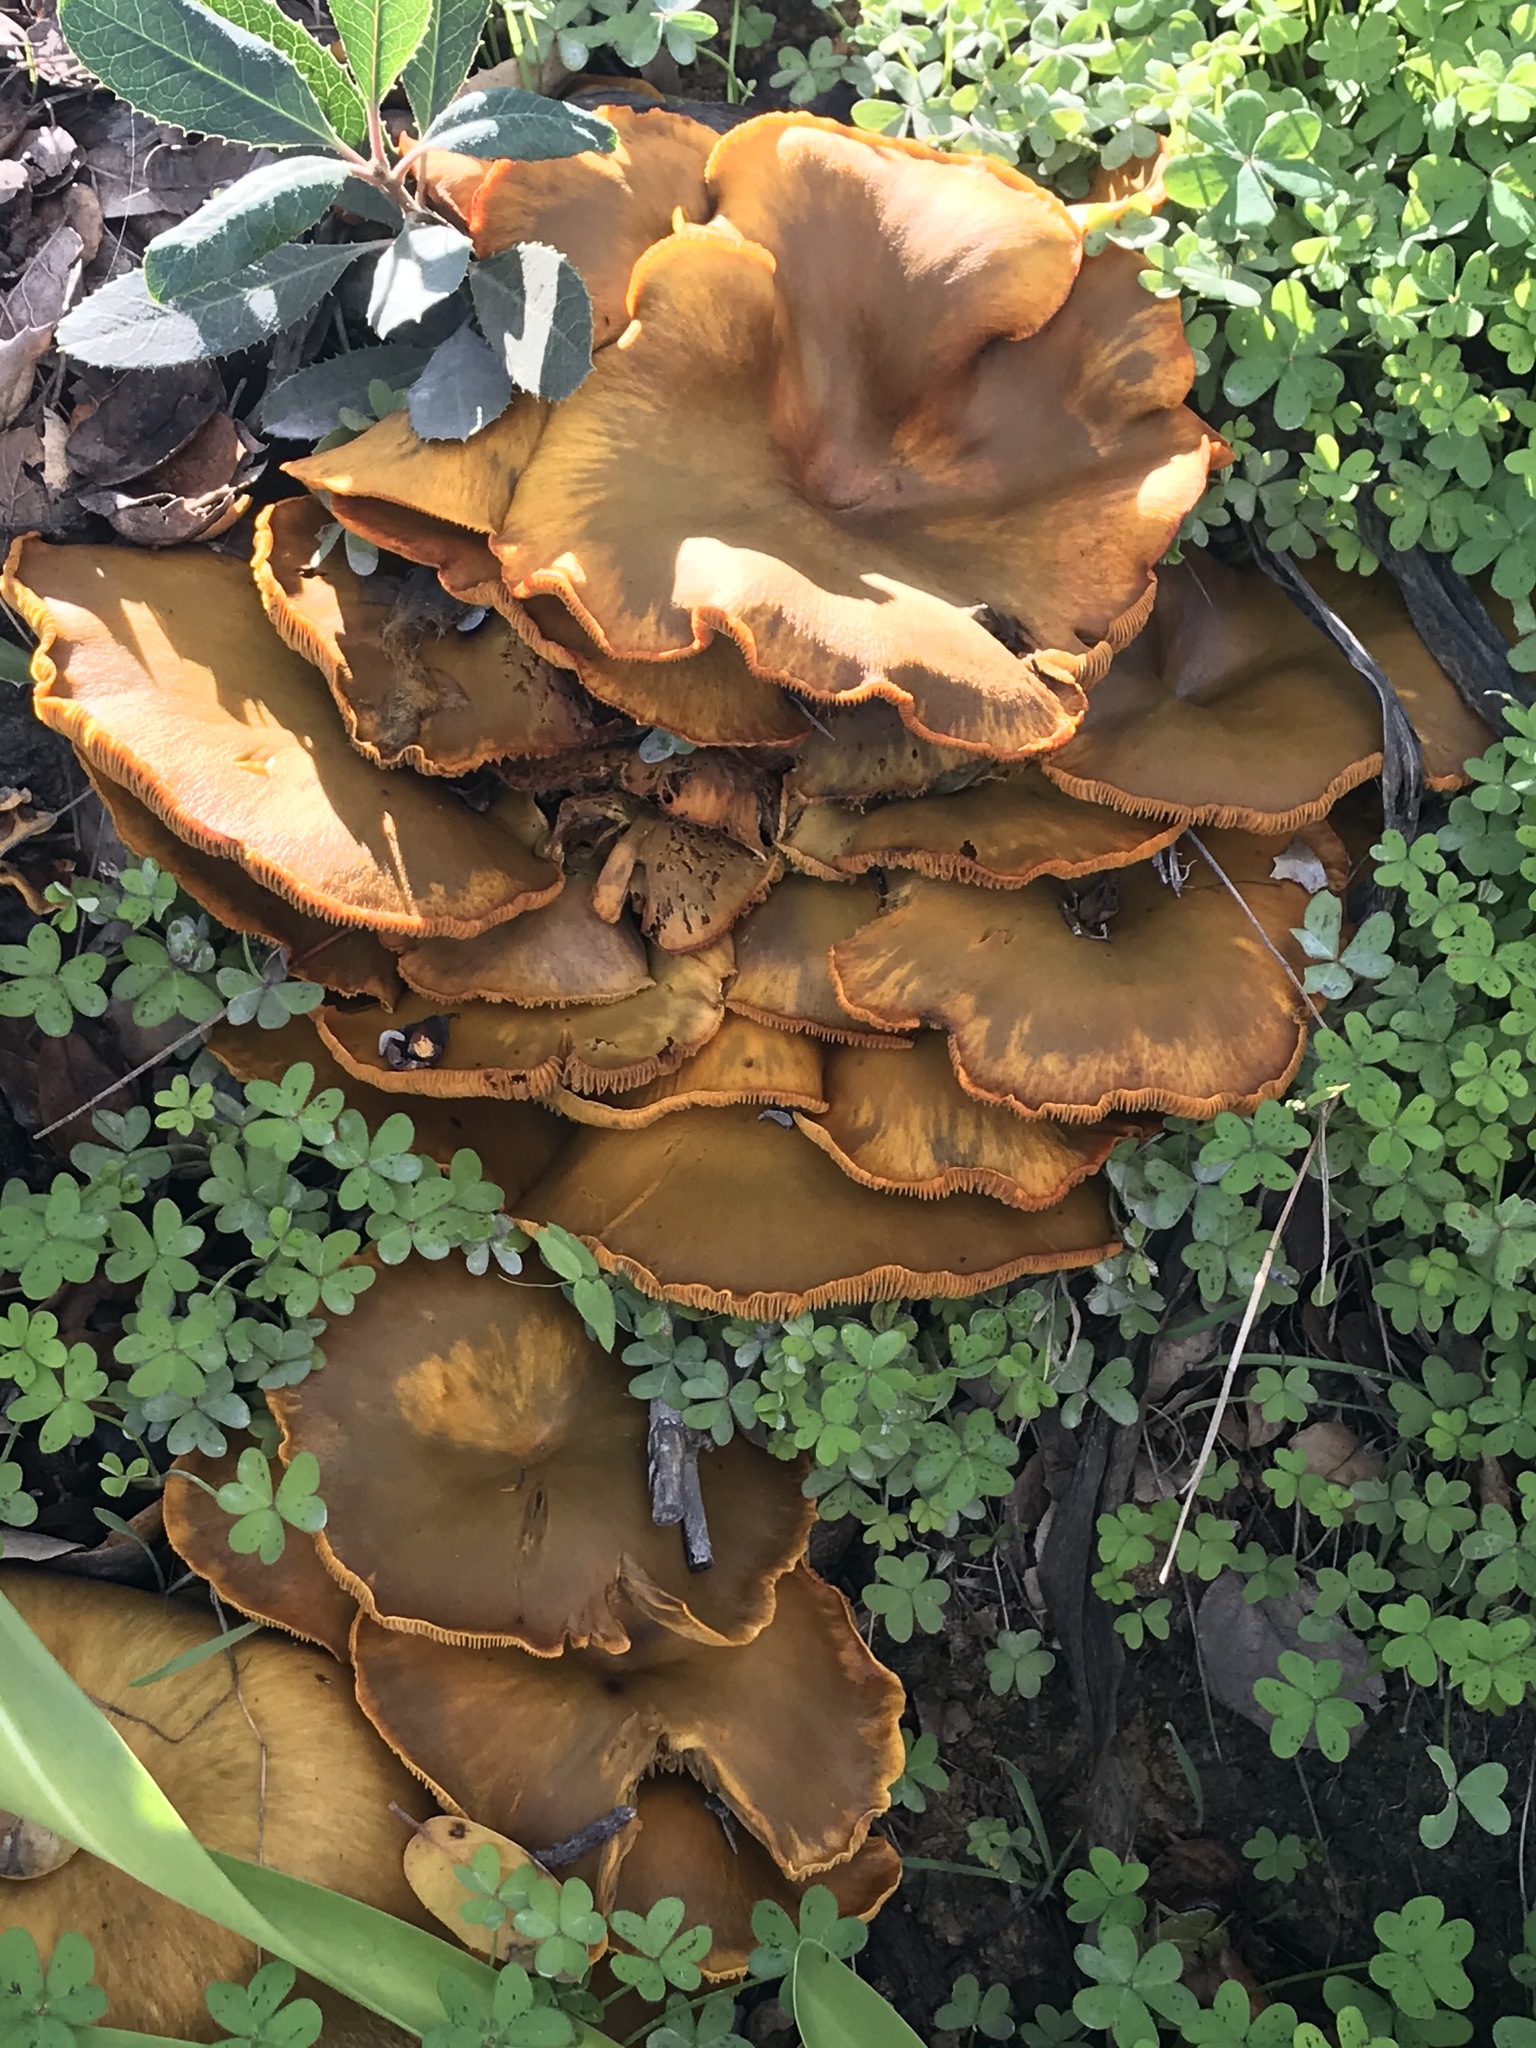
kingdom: Fungi
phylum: Basidiomycota
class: Agaricomycetes
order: Agaricales
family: Omphalotaceae
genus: Omphalotus
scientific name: Omphalotus olivascens
